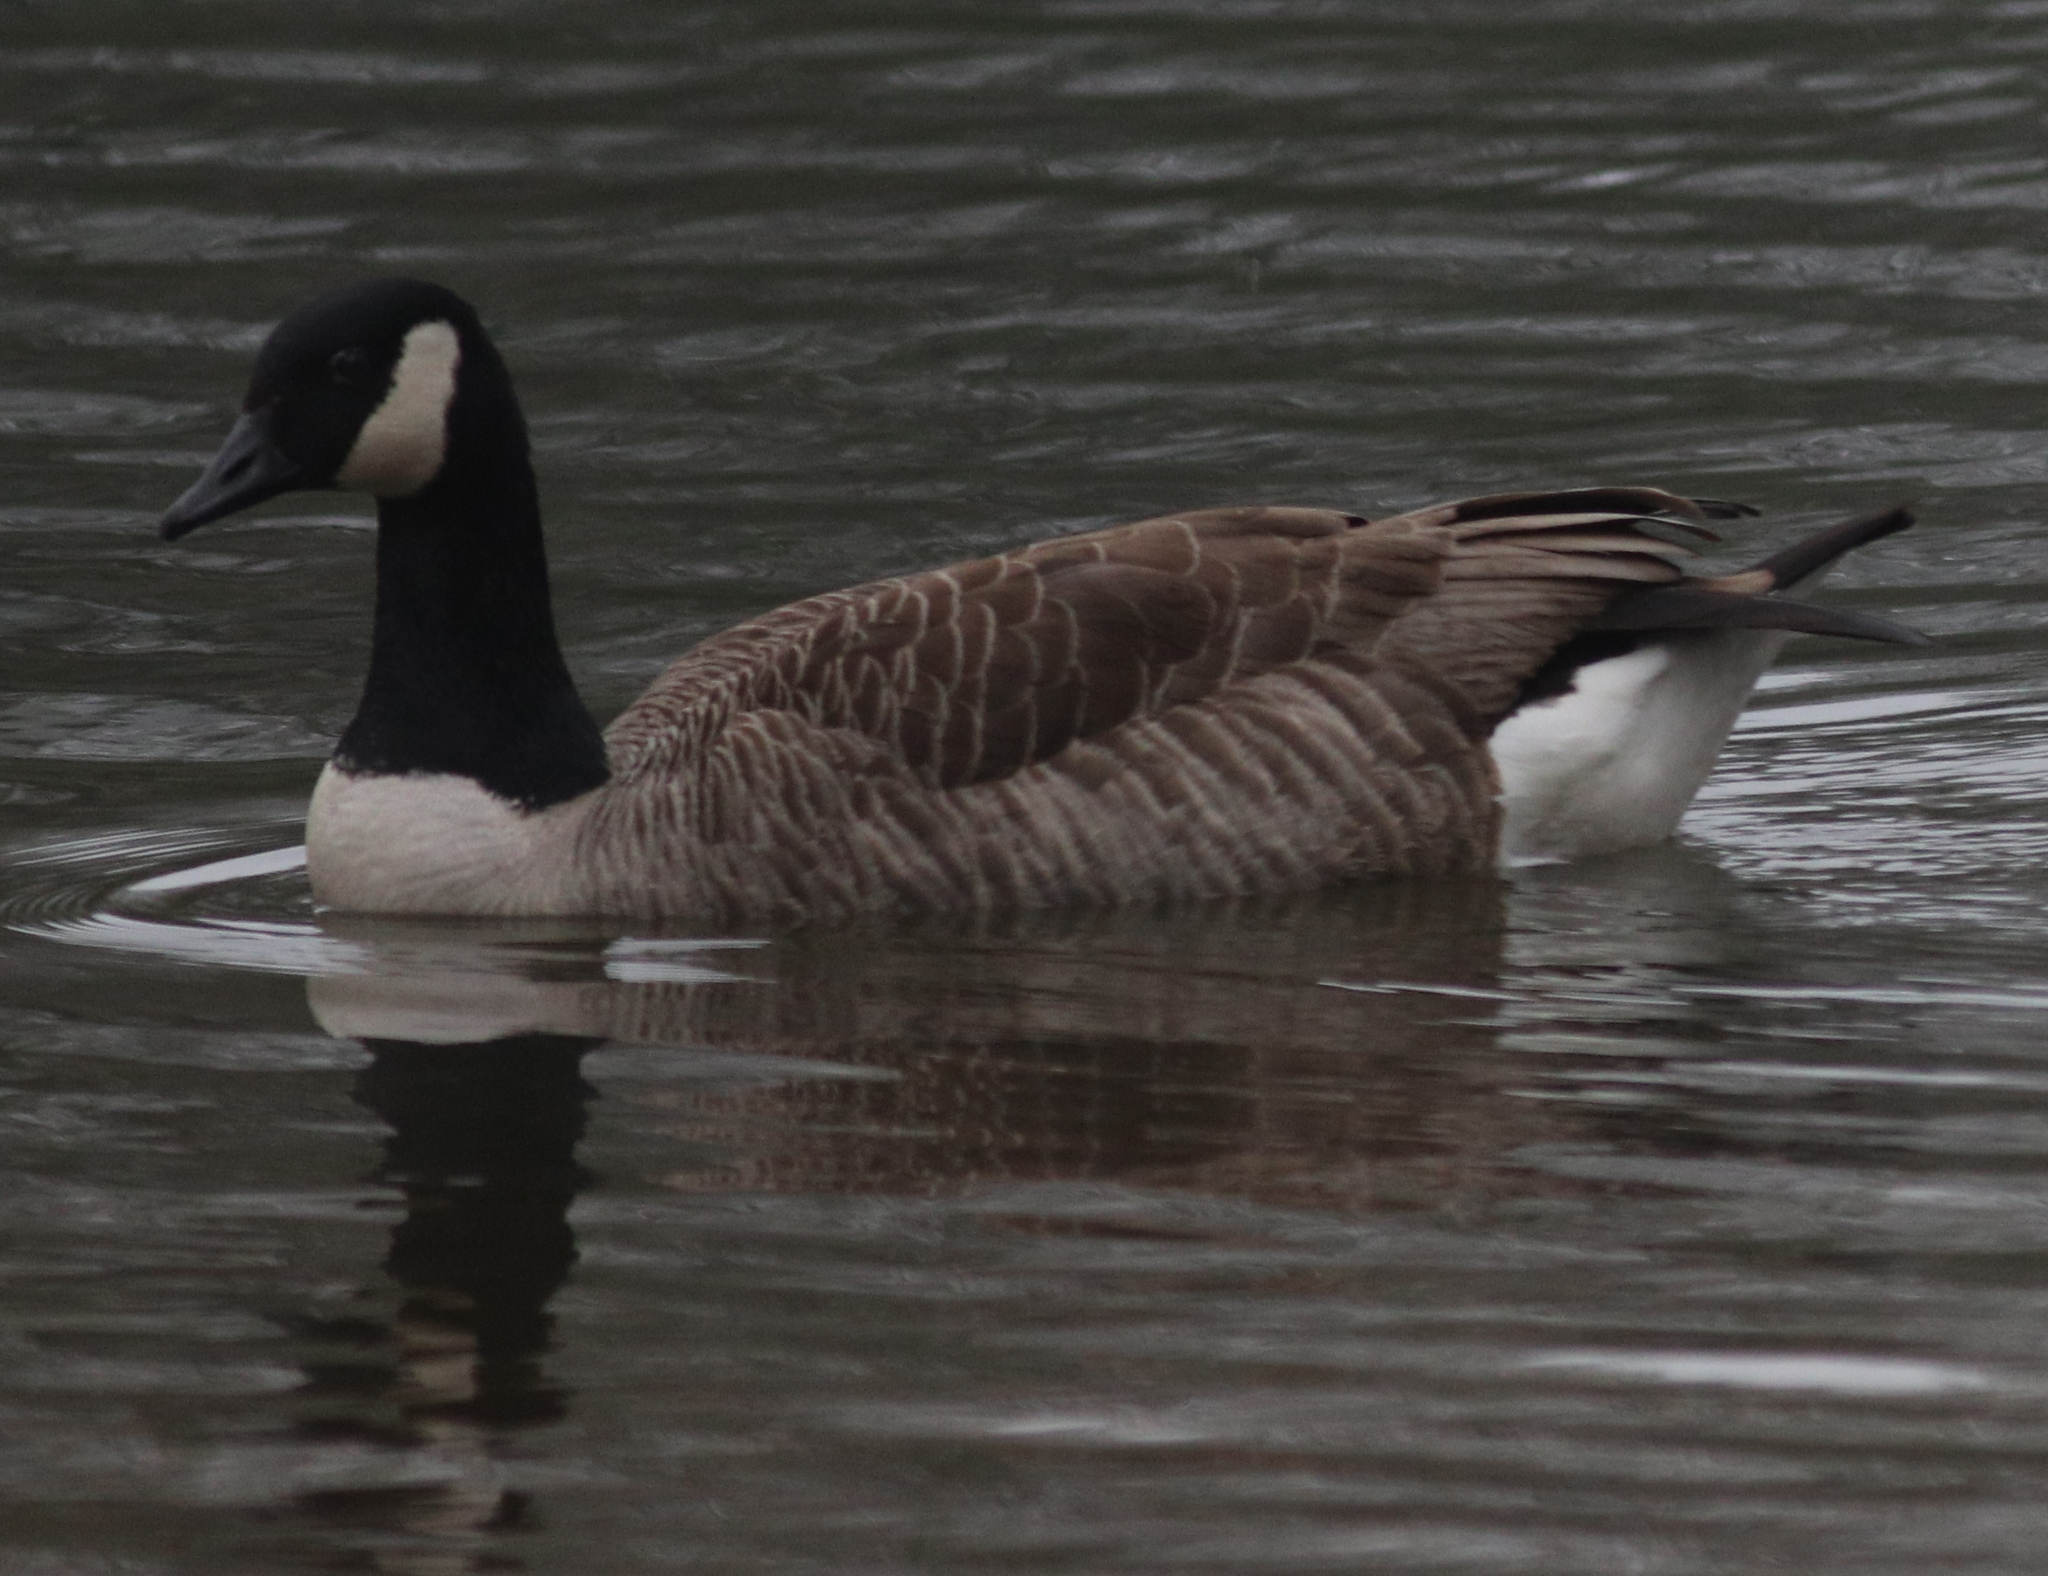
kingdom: Animalia
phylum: Chordata
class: Aves
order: Anseriformes
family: Anatidae
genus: Branta
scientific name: Branta canadensis
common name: Canada goose
